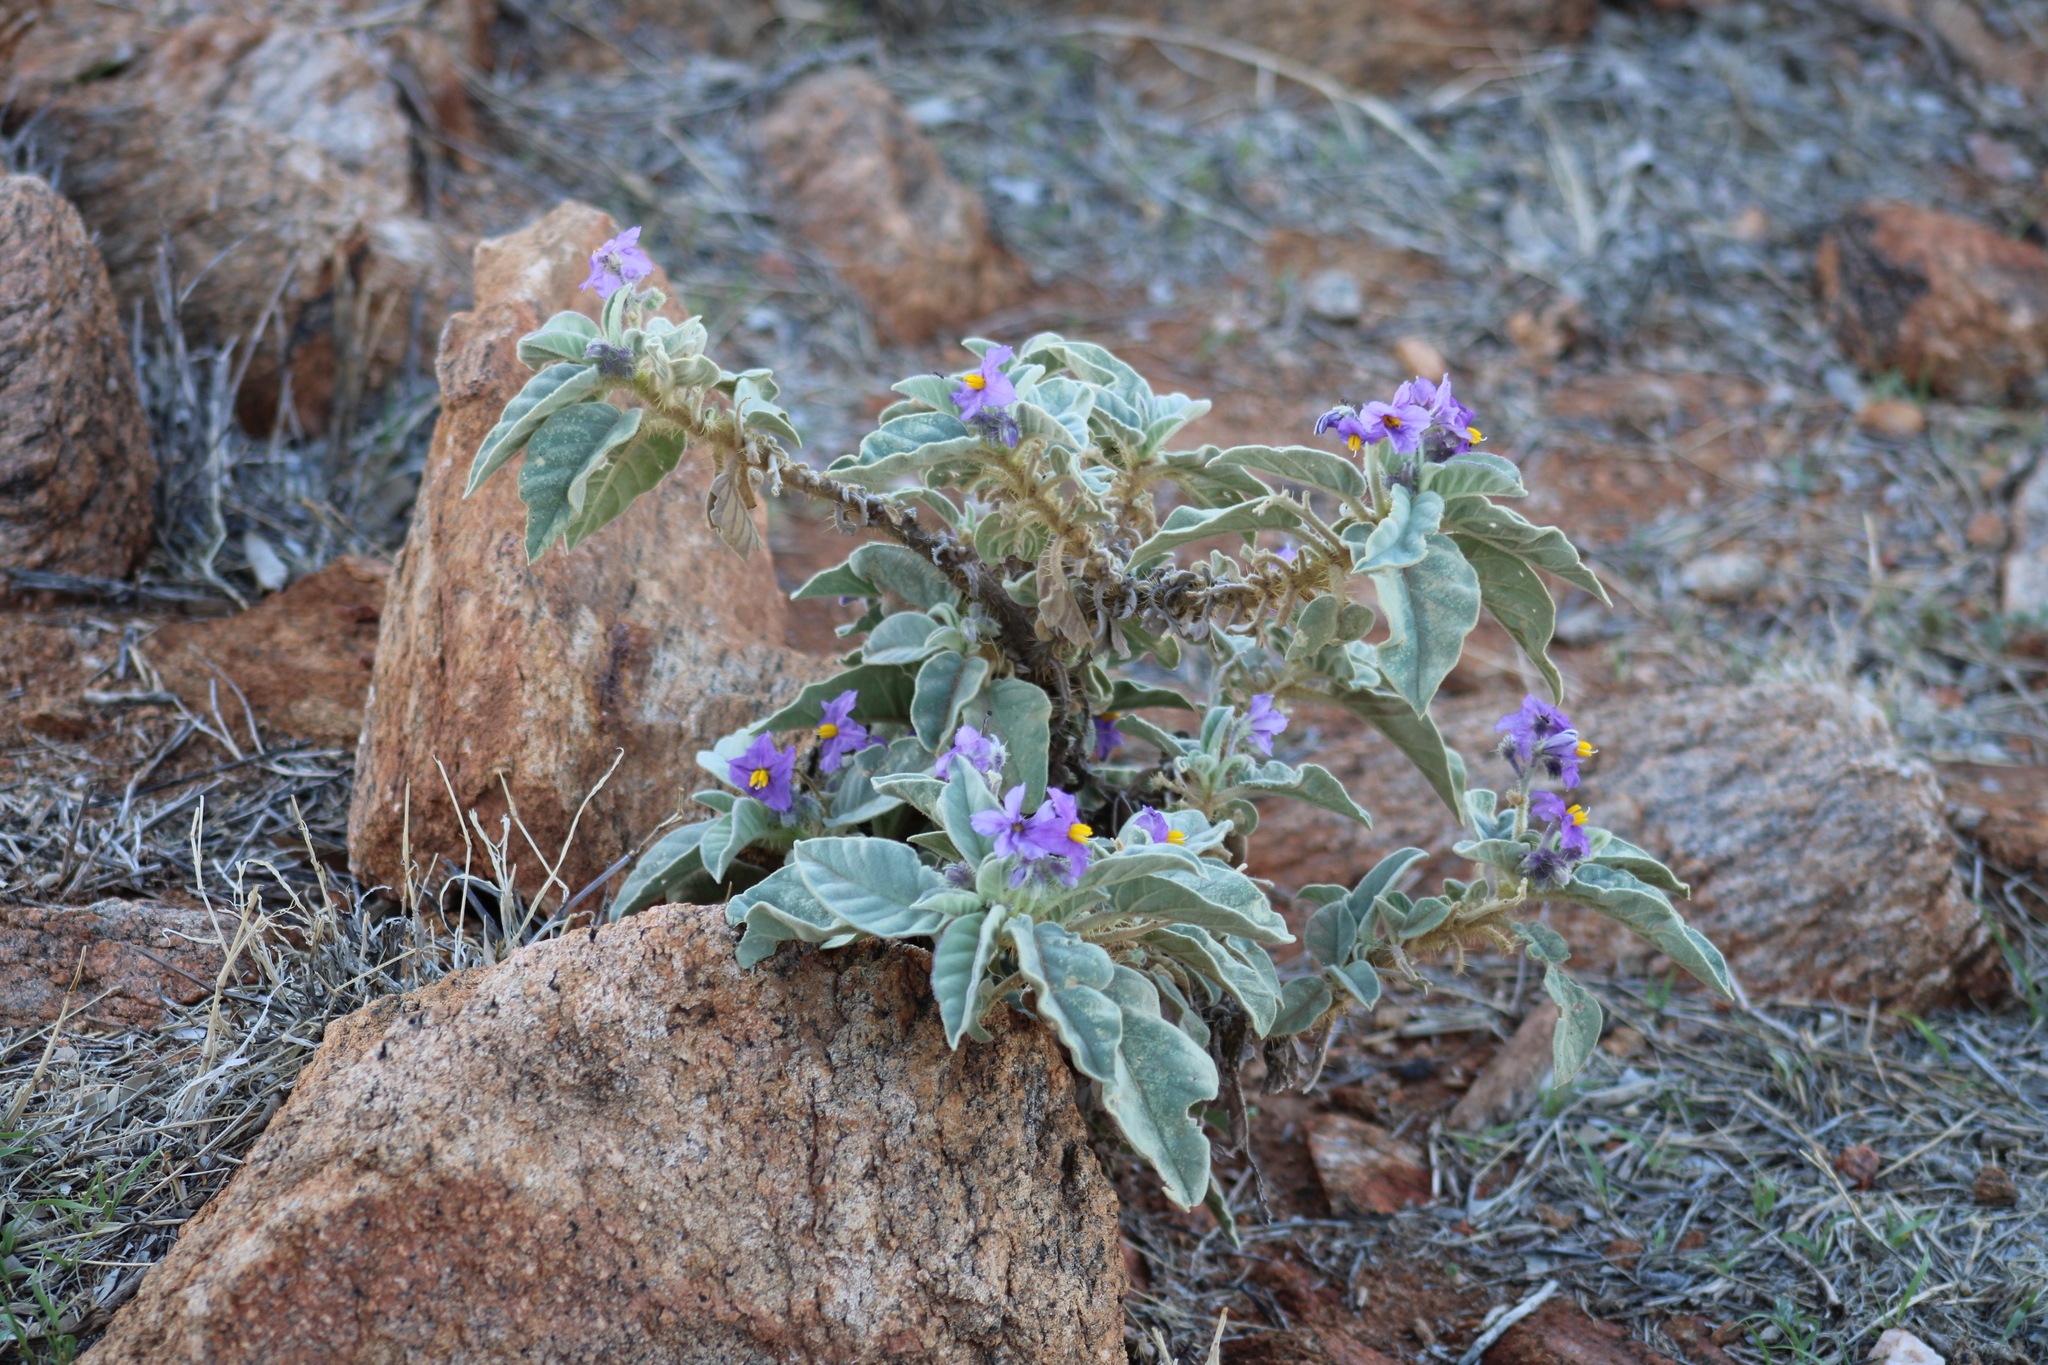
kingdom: Plantae
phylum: Tracheophyta
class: Magnoliopsida
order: Solanales
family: Solanaceae
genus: Solanum
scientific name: Solanum quadriloculatum
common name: Wild tomato
